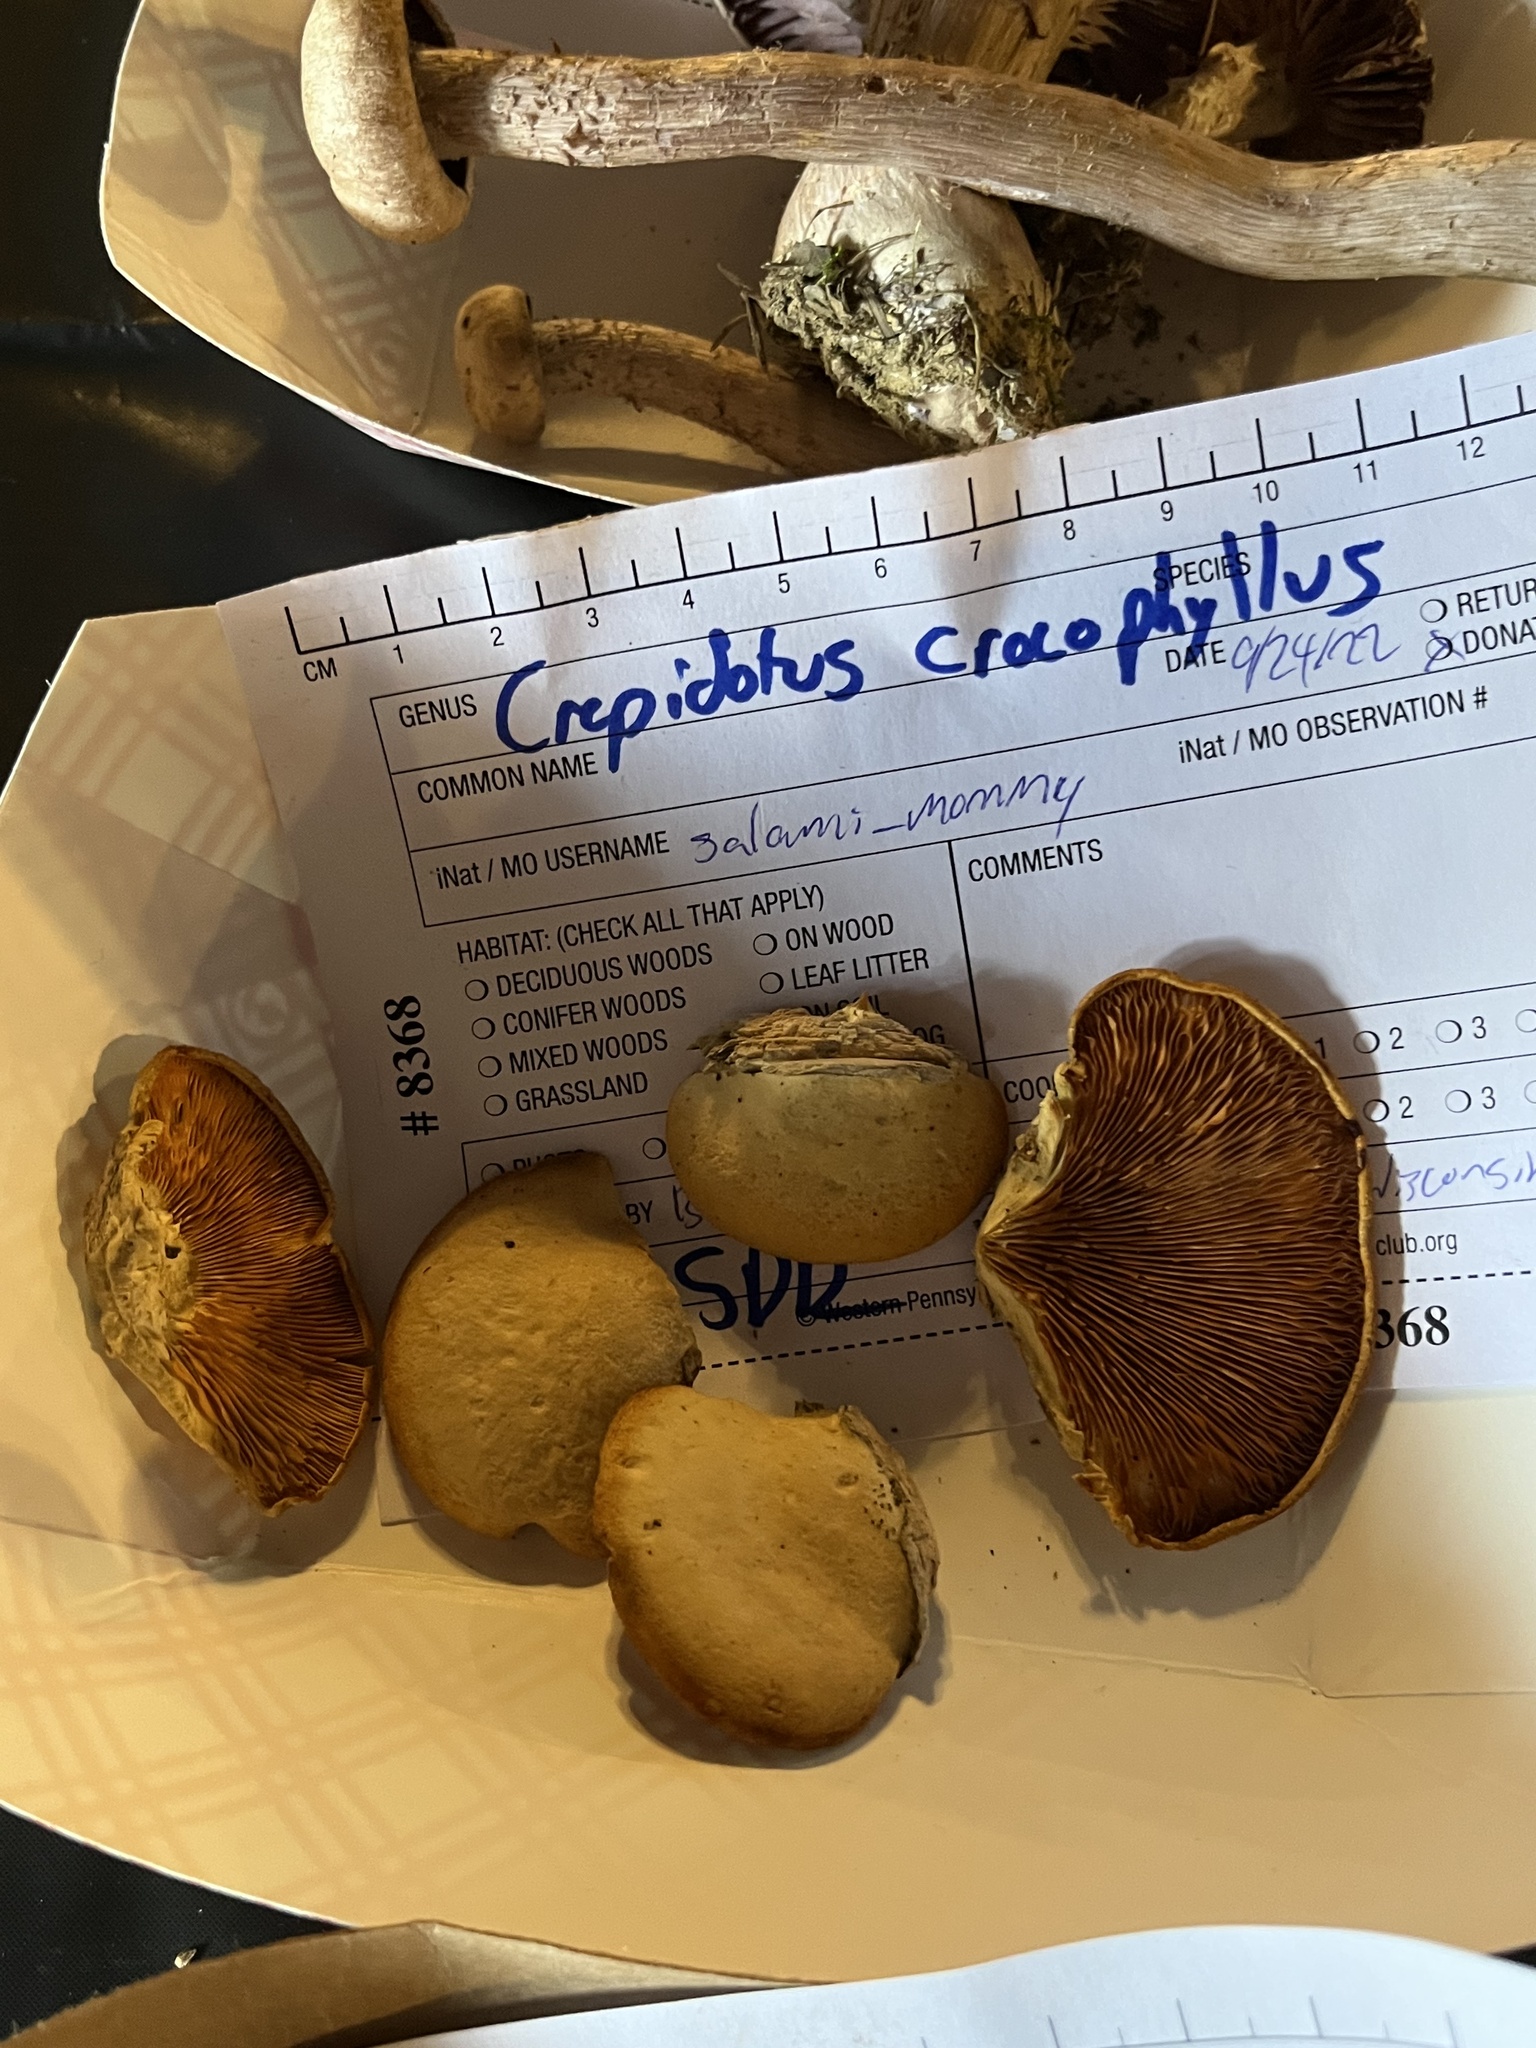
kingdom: Fungi
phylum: Basidiomycota
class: Agaricomycetes
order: Agaricales
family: Crepidotaceae
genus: Crepidotus
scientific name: Crepidotus crocophyllus
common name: Saffron oysterling
